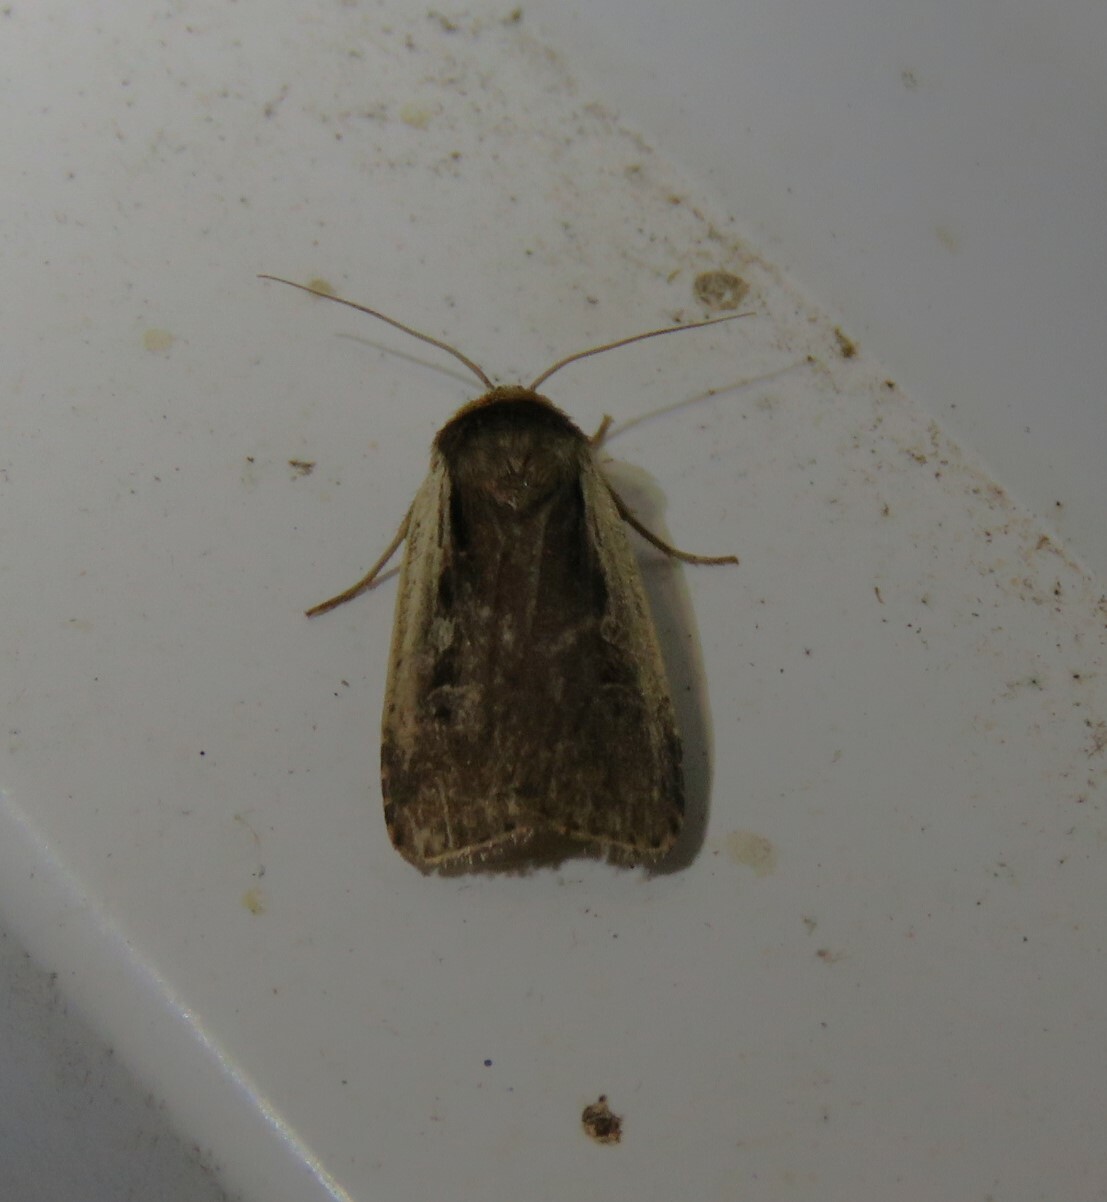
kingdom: Animalia
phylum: Arthropoda
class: Insecta
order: Lepidoptera
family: Noctuidae
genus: Ochropleura
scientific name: Ochropleura implecta
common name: Flame-shouldered dart
